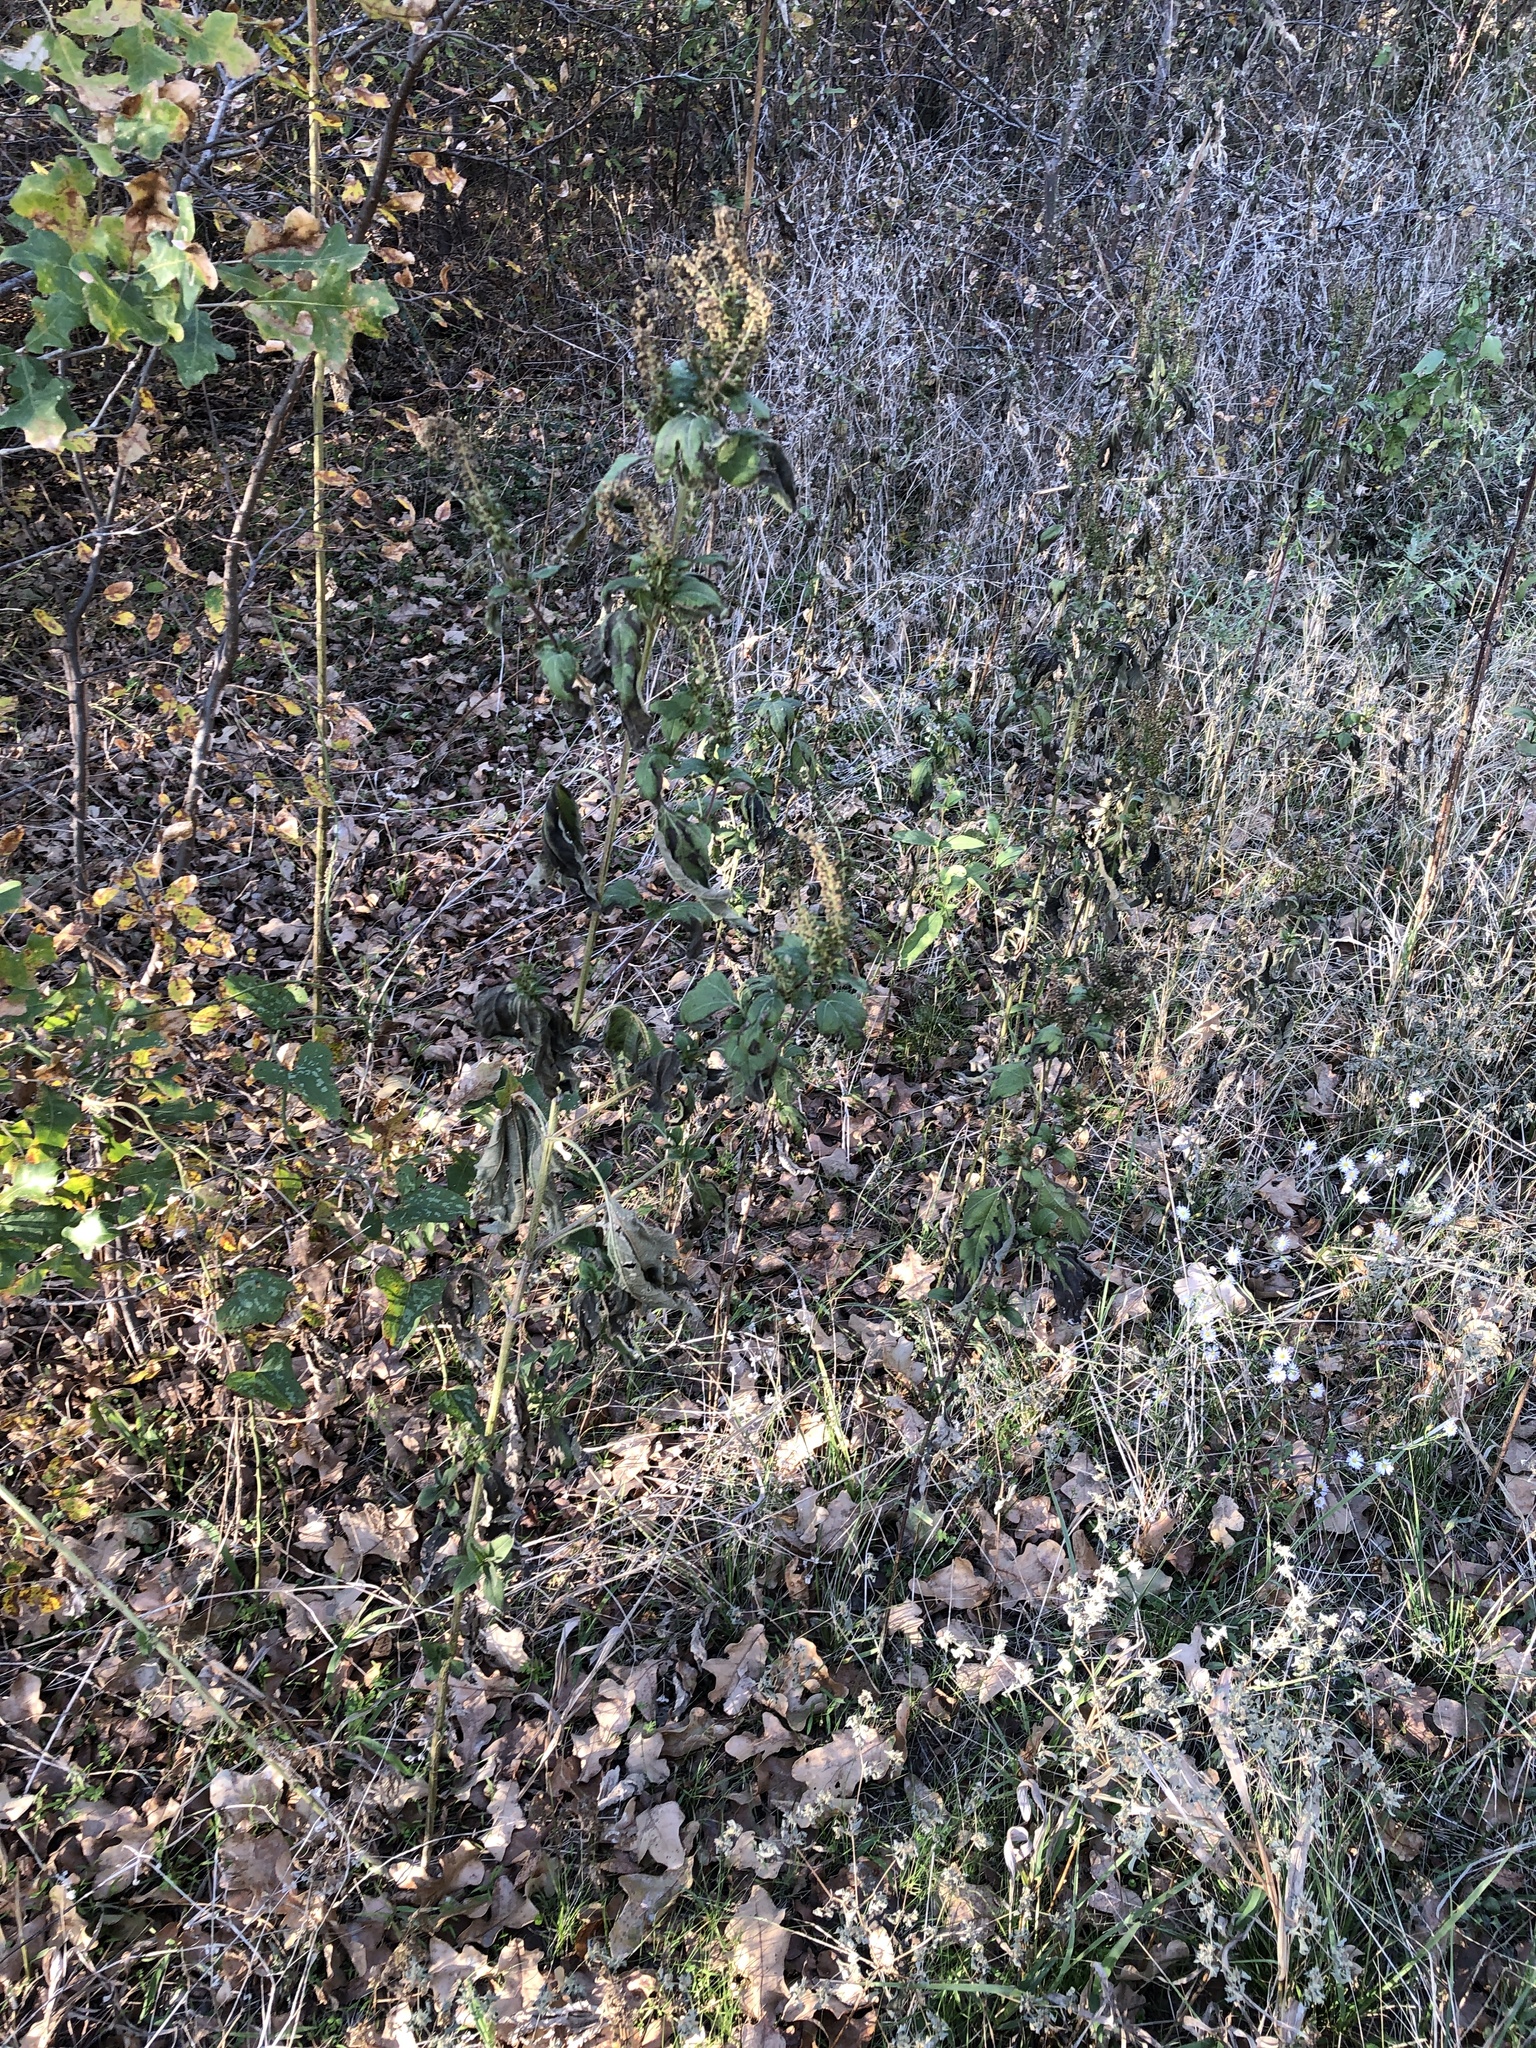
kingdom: Plantae
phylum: Tracheophyta
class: Magnoliopsida
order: Asterales
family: Asteraceae
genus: Ambrosia
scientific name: Ambrosia trifida
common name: Giant ragweed
